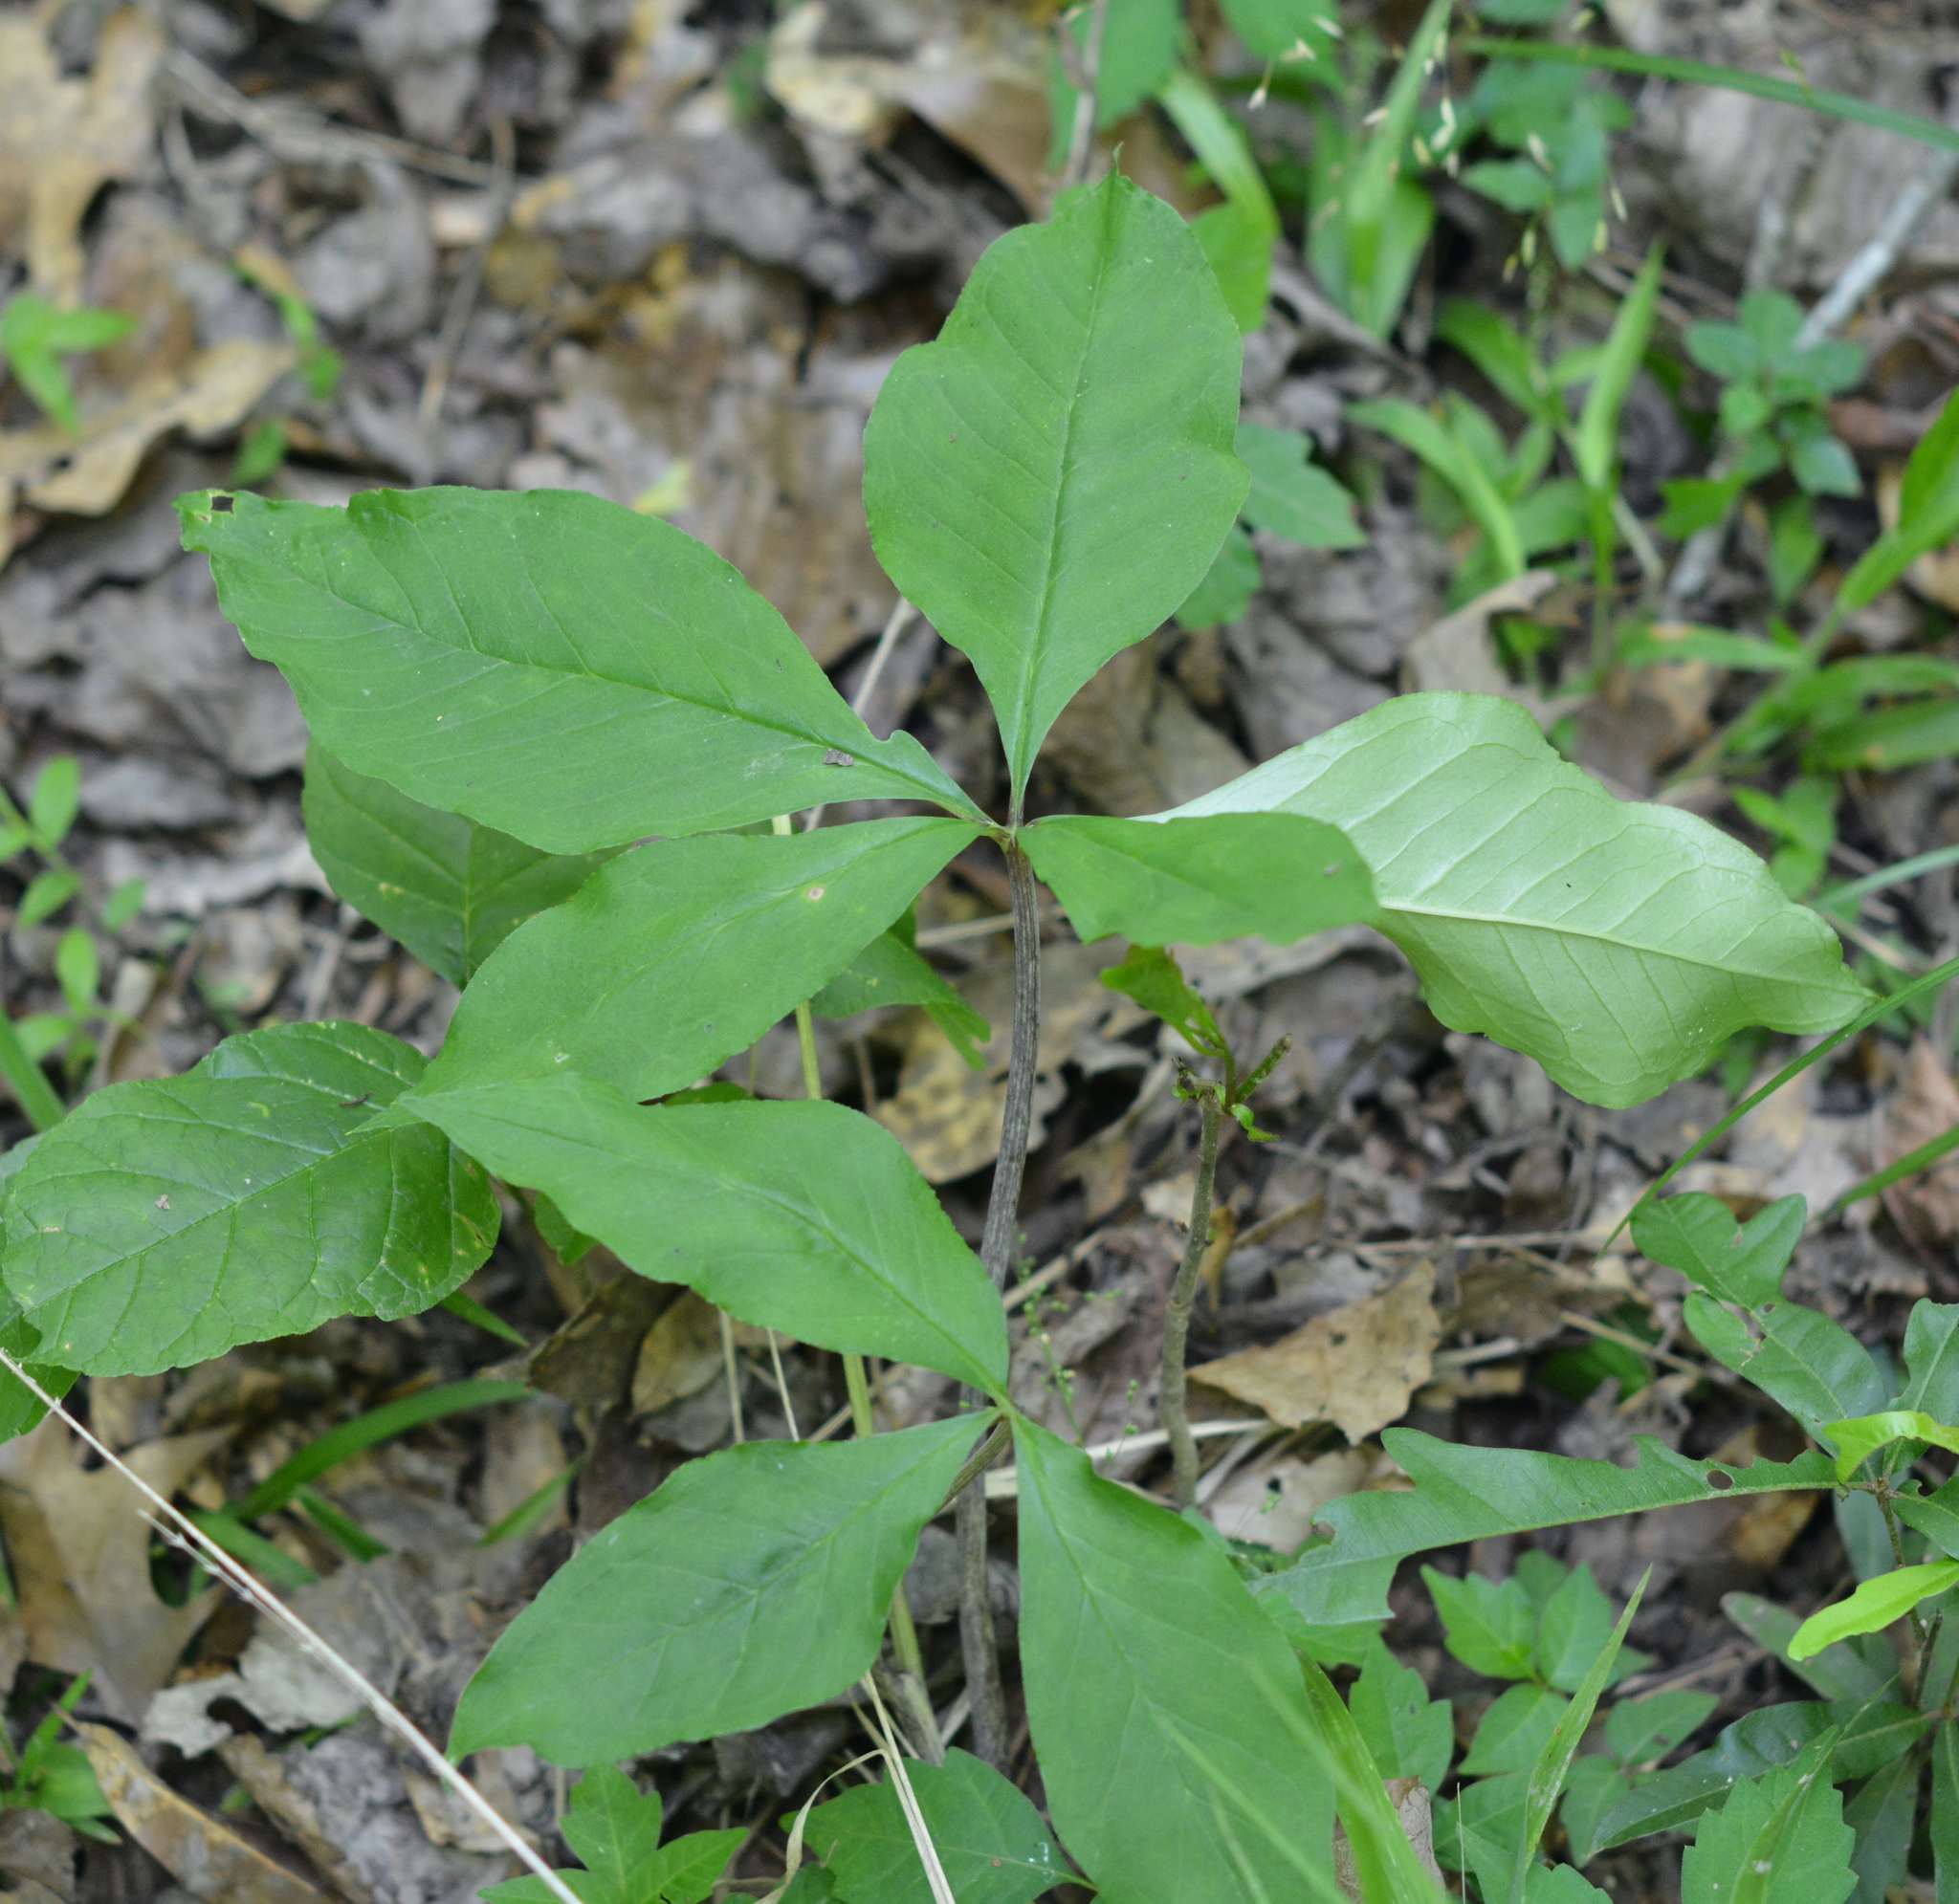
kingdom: Plantae
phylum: Tracheophyta
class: Liliopsida
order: Alismatales
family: Araceae
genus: Arisaema
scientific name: Arisaema quinatum
